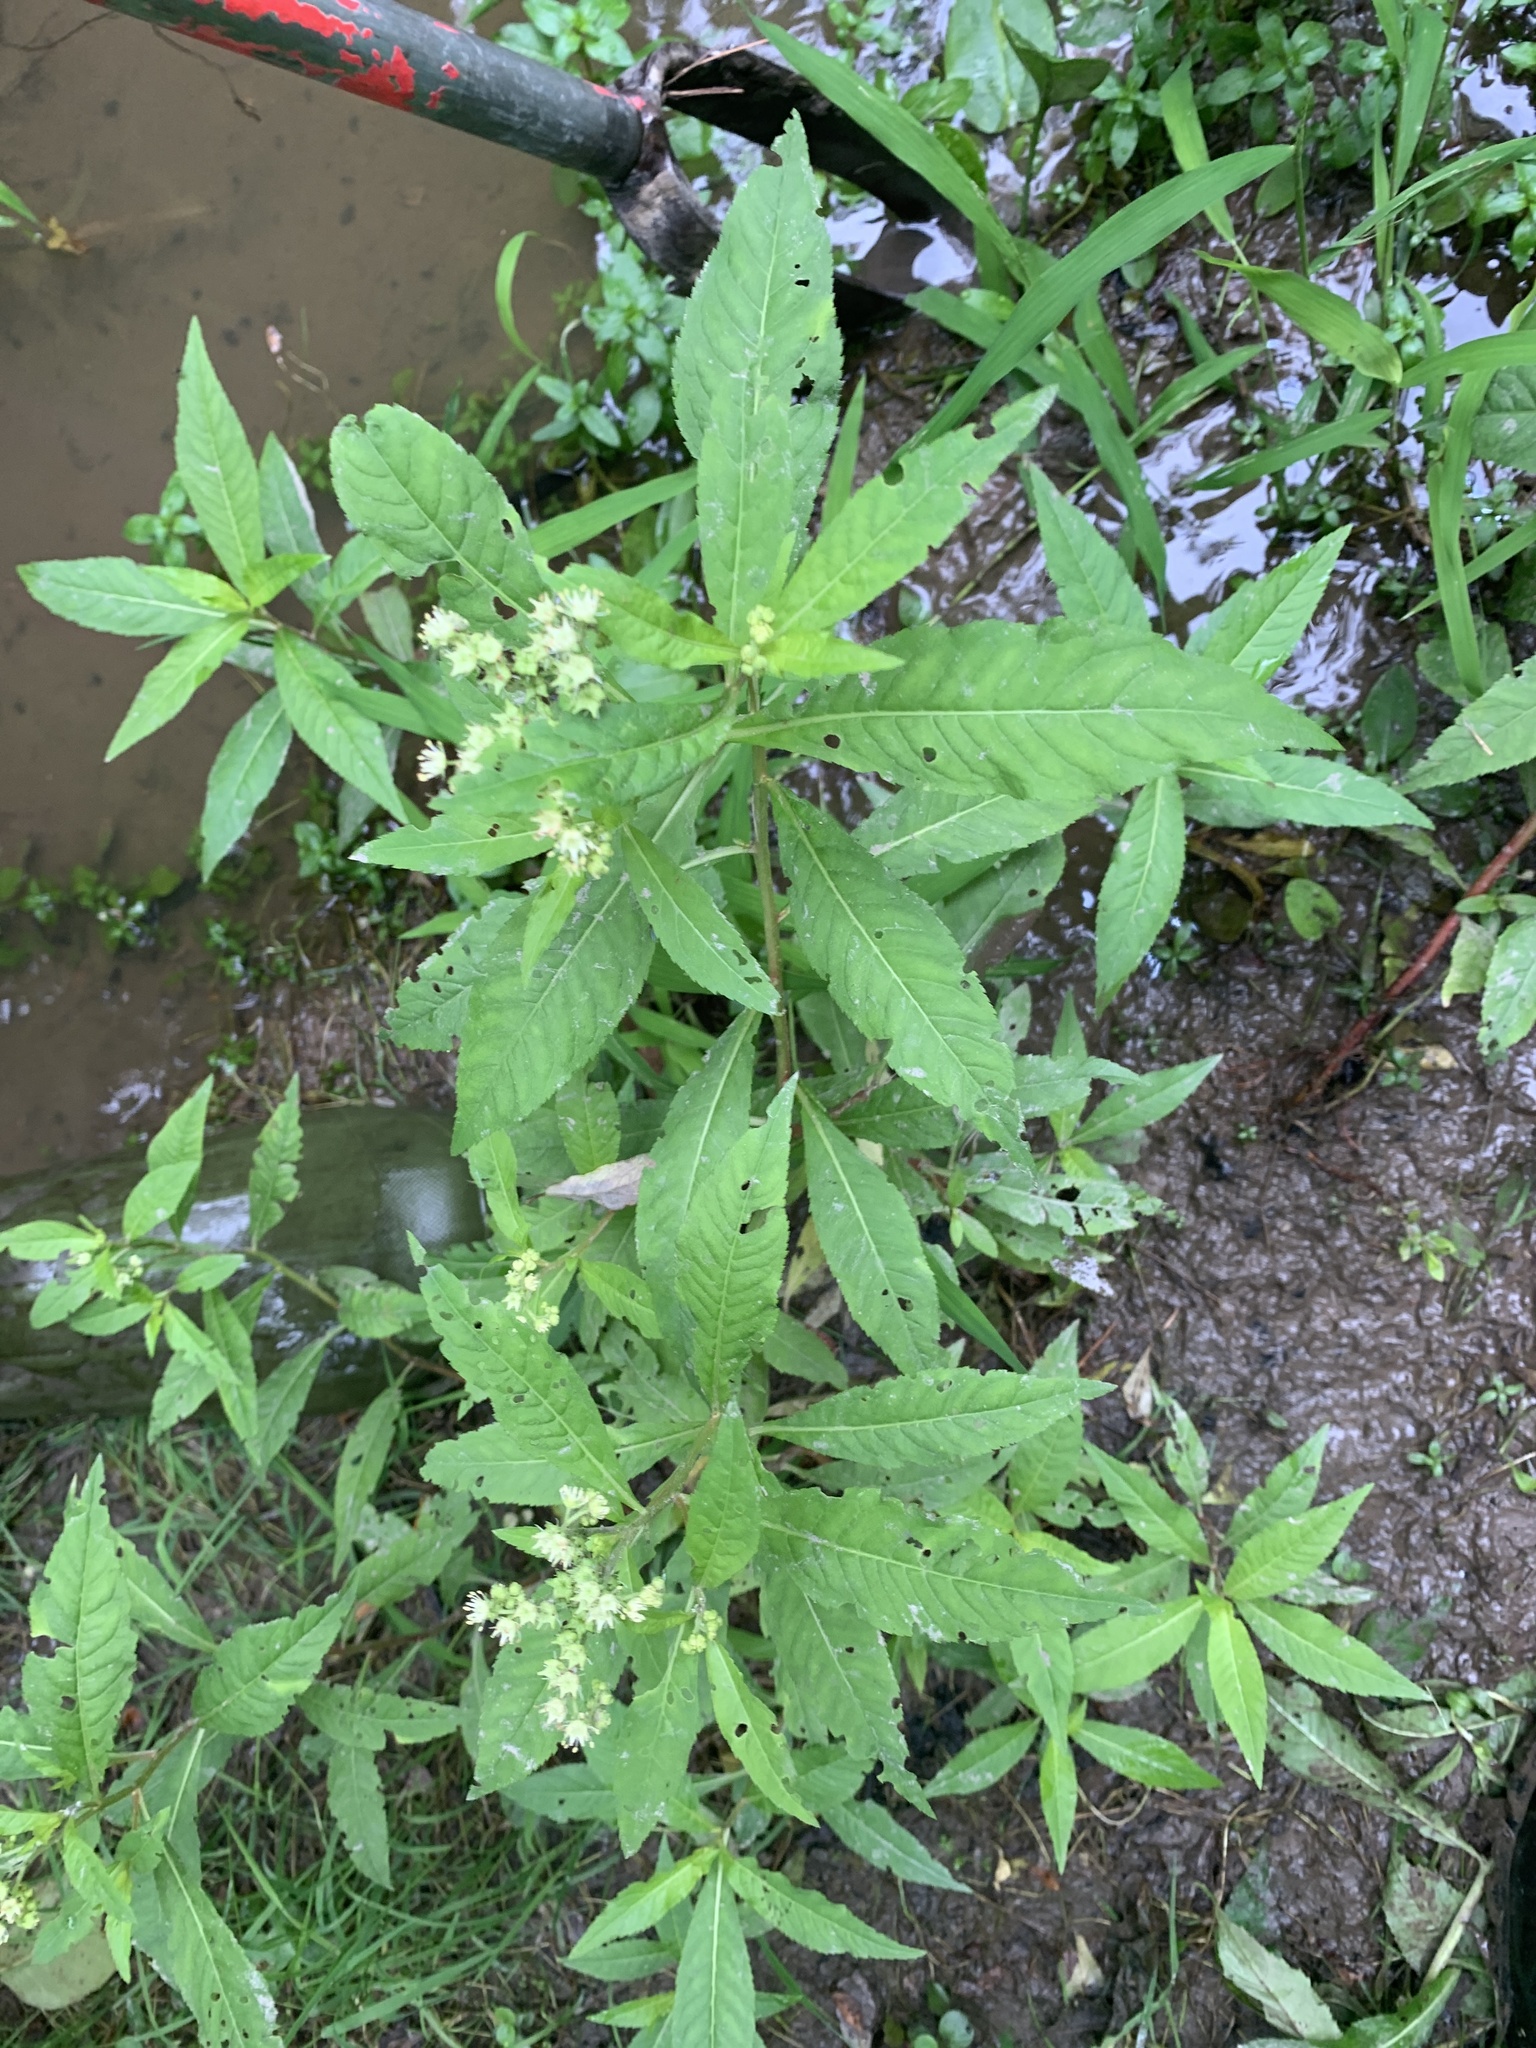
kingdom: Plantae
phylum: Tracheophyta
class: Magnoliopsida
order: Saxifragales
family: Penthoraceae
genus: Penthorum
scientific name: Penthorum sedoides
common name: Ditch stonecrop
